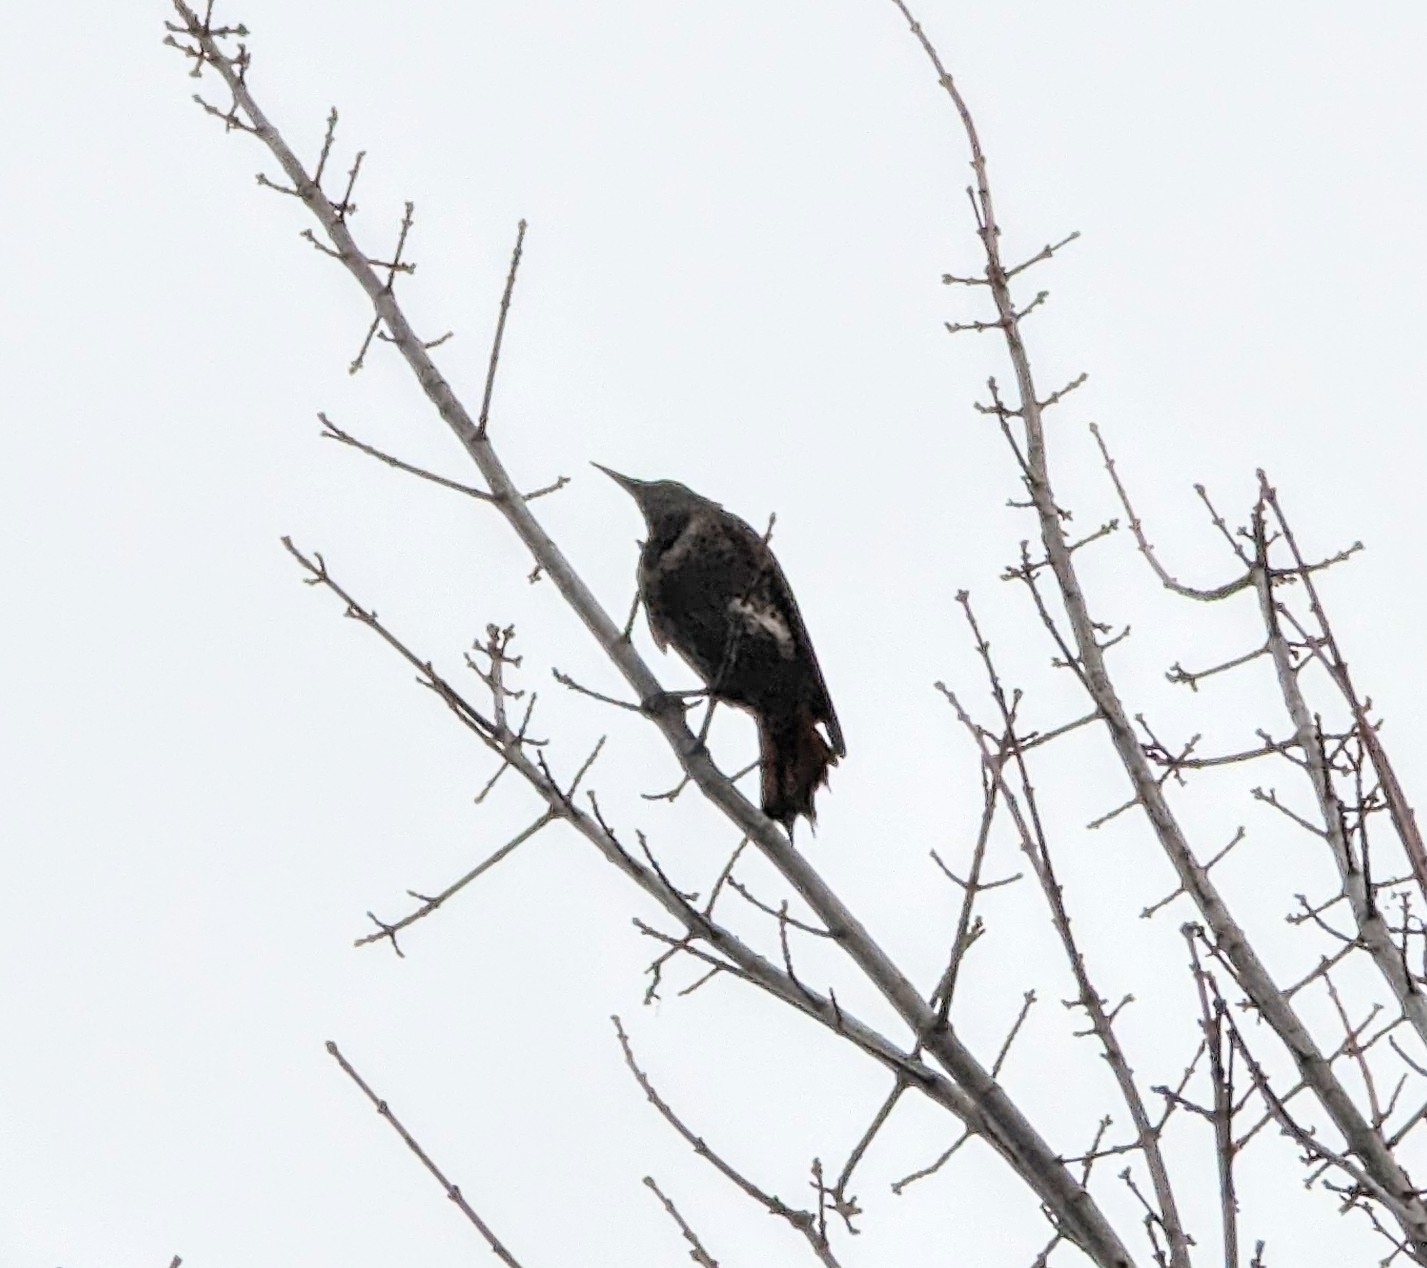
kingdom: Animalia
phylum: Chordata
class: Aves
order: Piciformes
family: Picidae
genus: Colaptes
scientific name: Colaptes auratus
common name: Northern flicker
